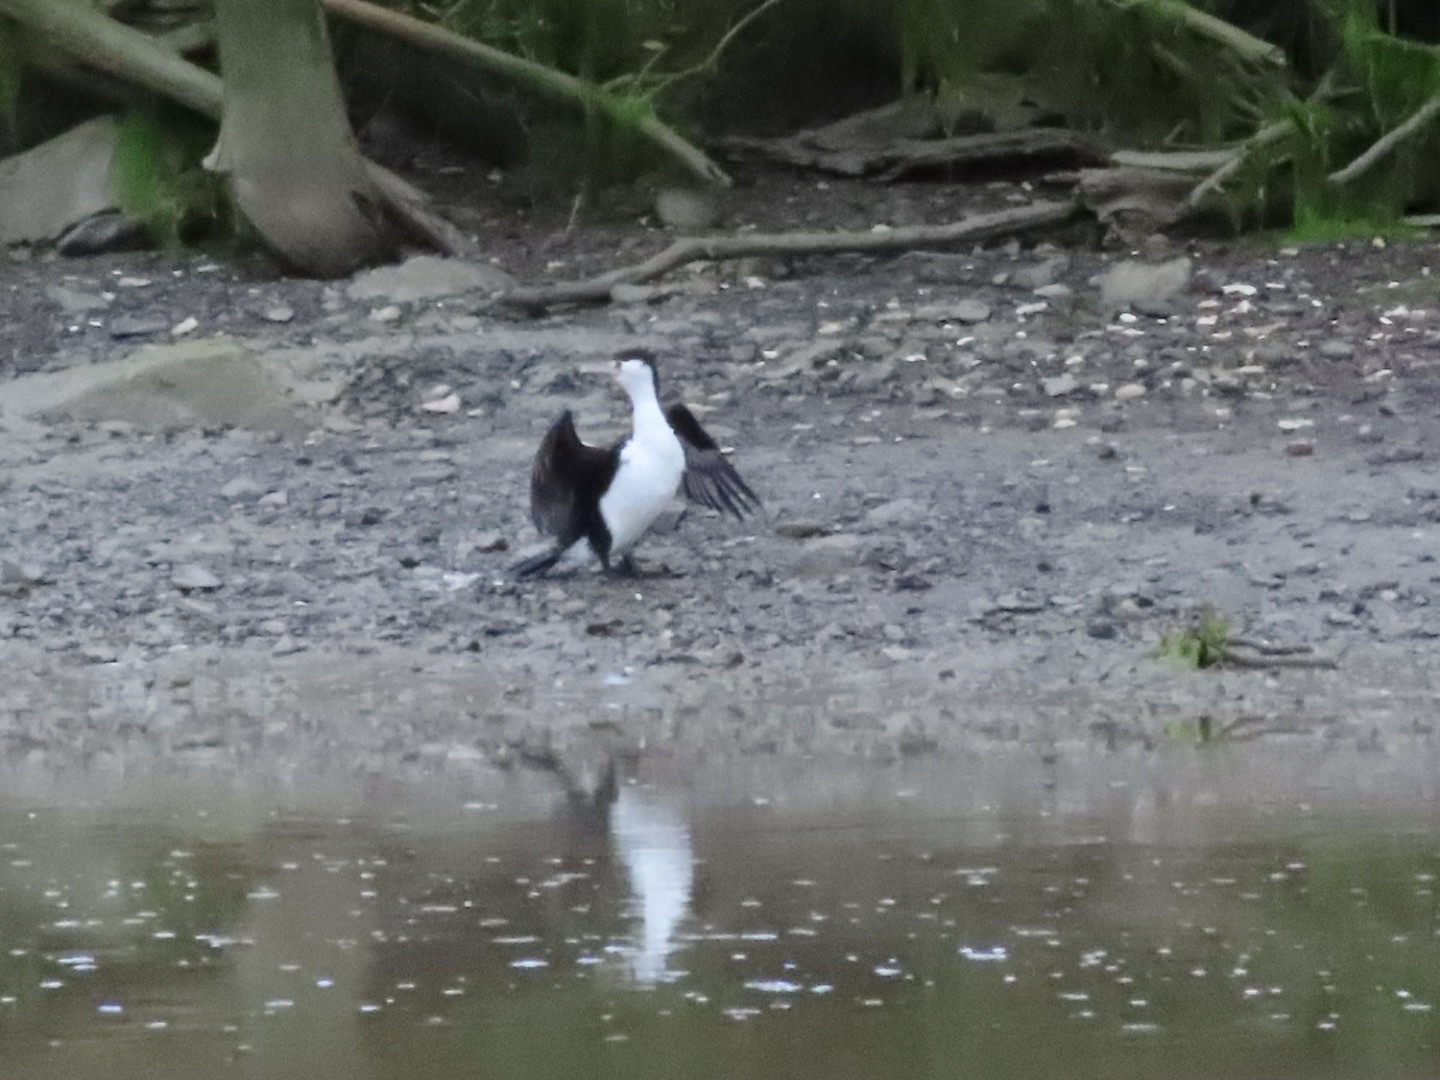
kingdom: Animalia
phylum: Chordata
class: Aves
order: Suliformes
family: Phalacrocoracidae
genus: Phalacrocorax
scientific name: Phalacrocorax varius
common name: Pied cormorant
